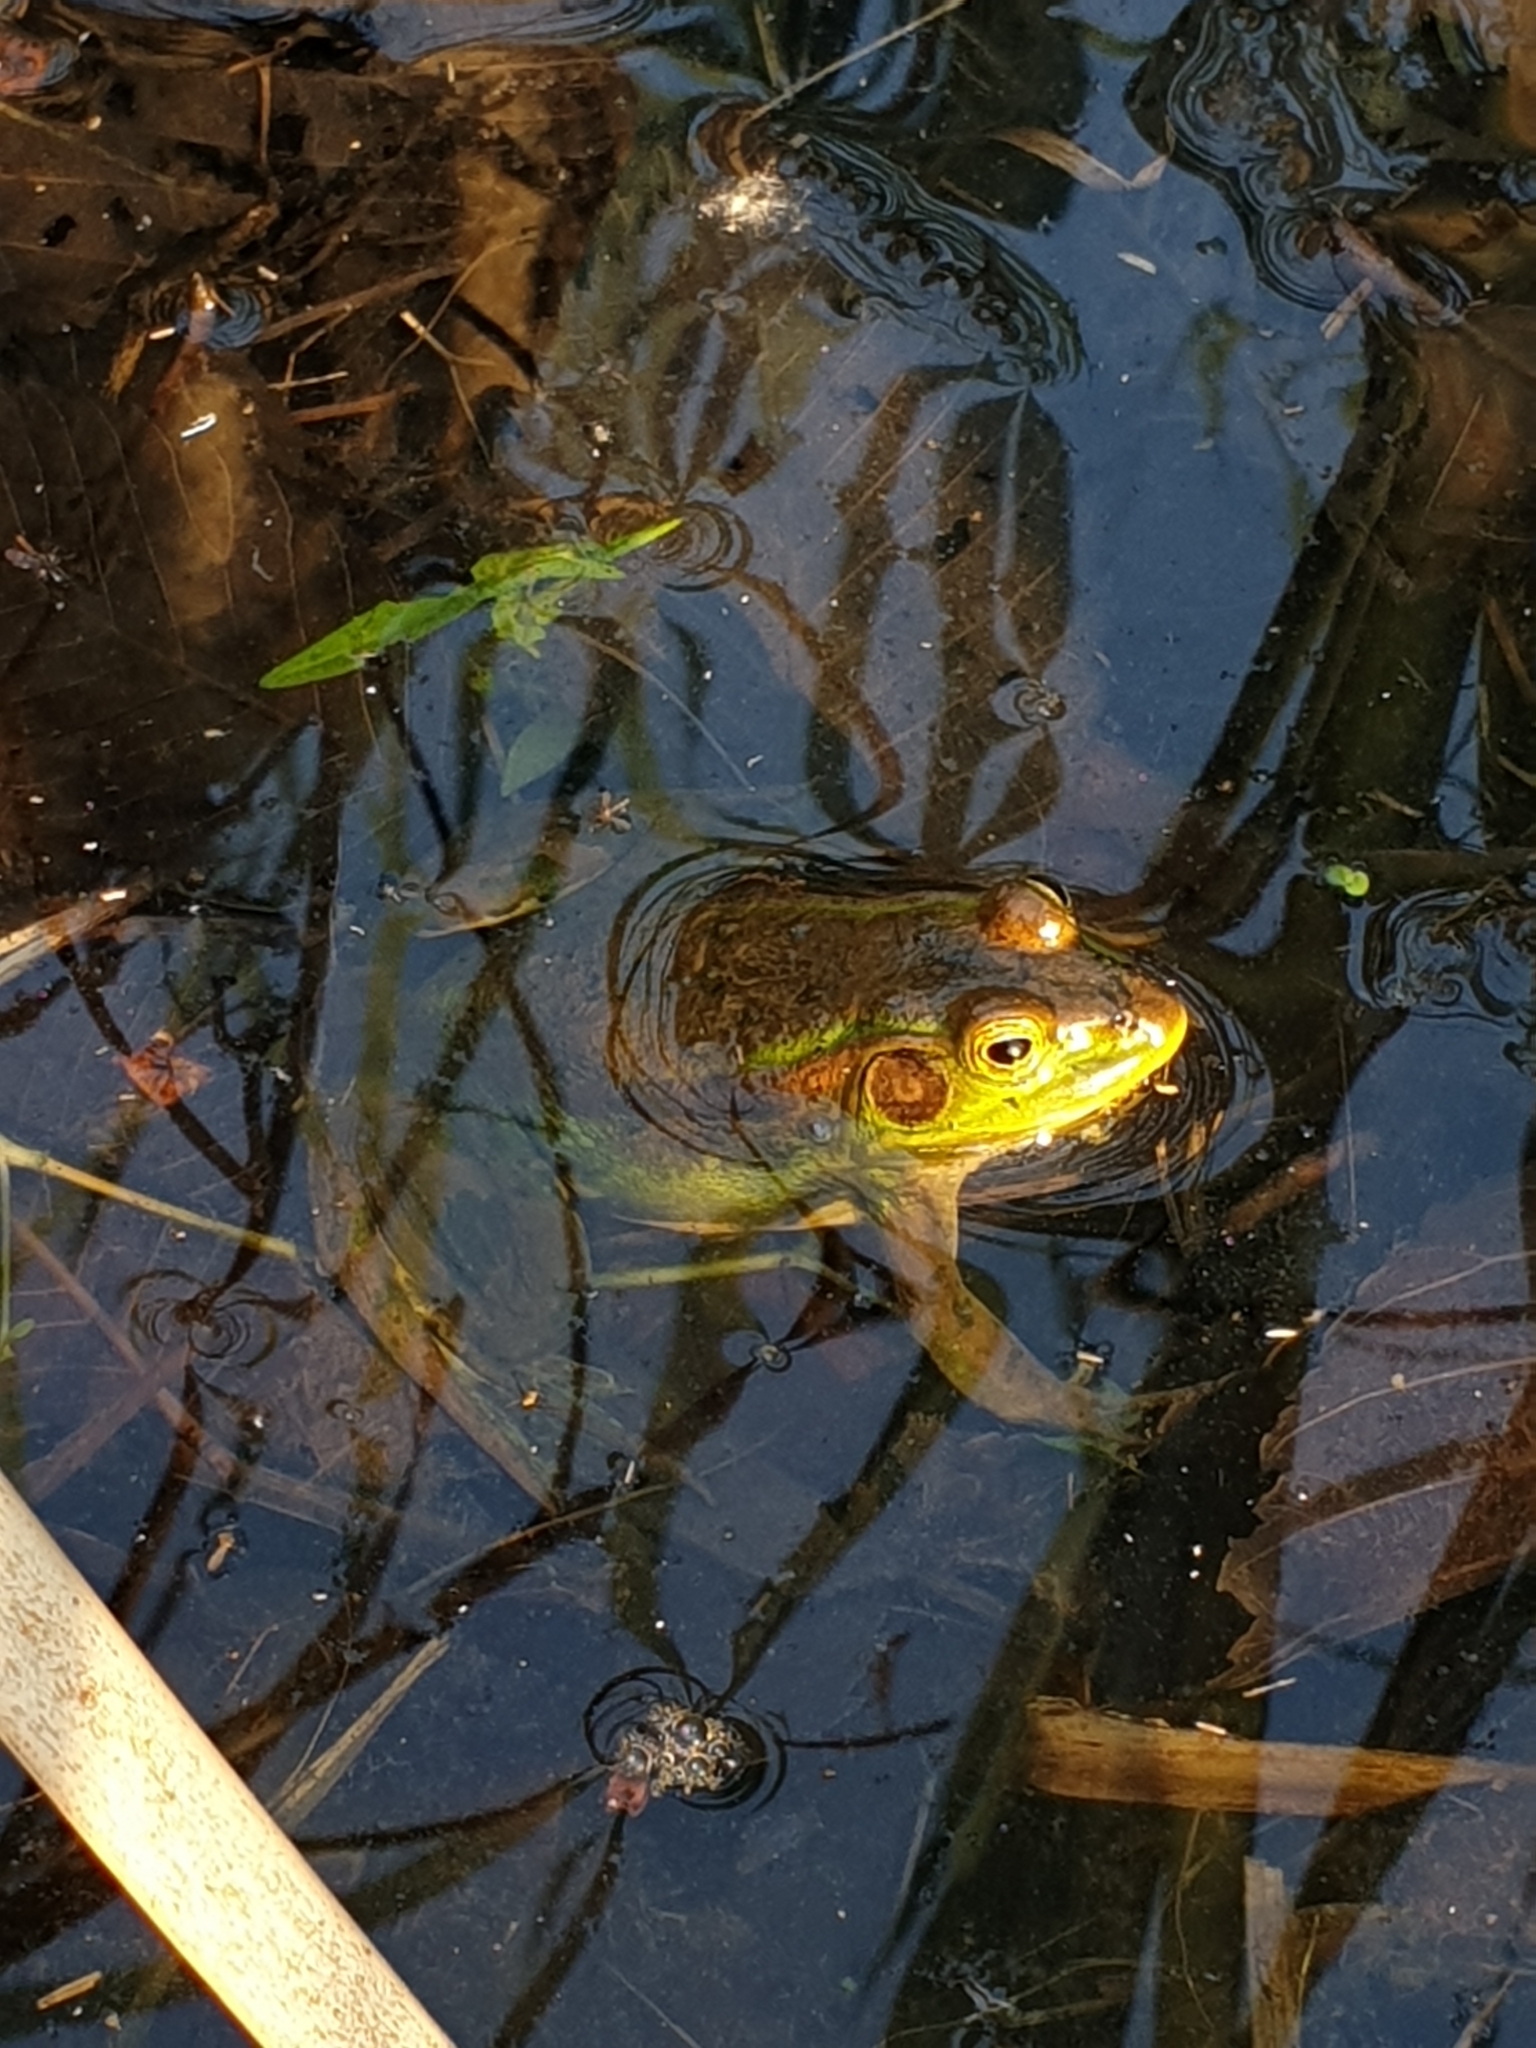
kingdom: Animalia
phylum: Chordata
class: Amphibia
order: Anura
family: Ranidae
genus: Pelophylax
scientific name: Pelophylax chosenicus
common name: Gold-spotted pond frog
